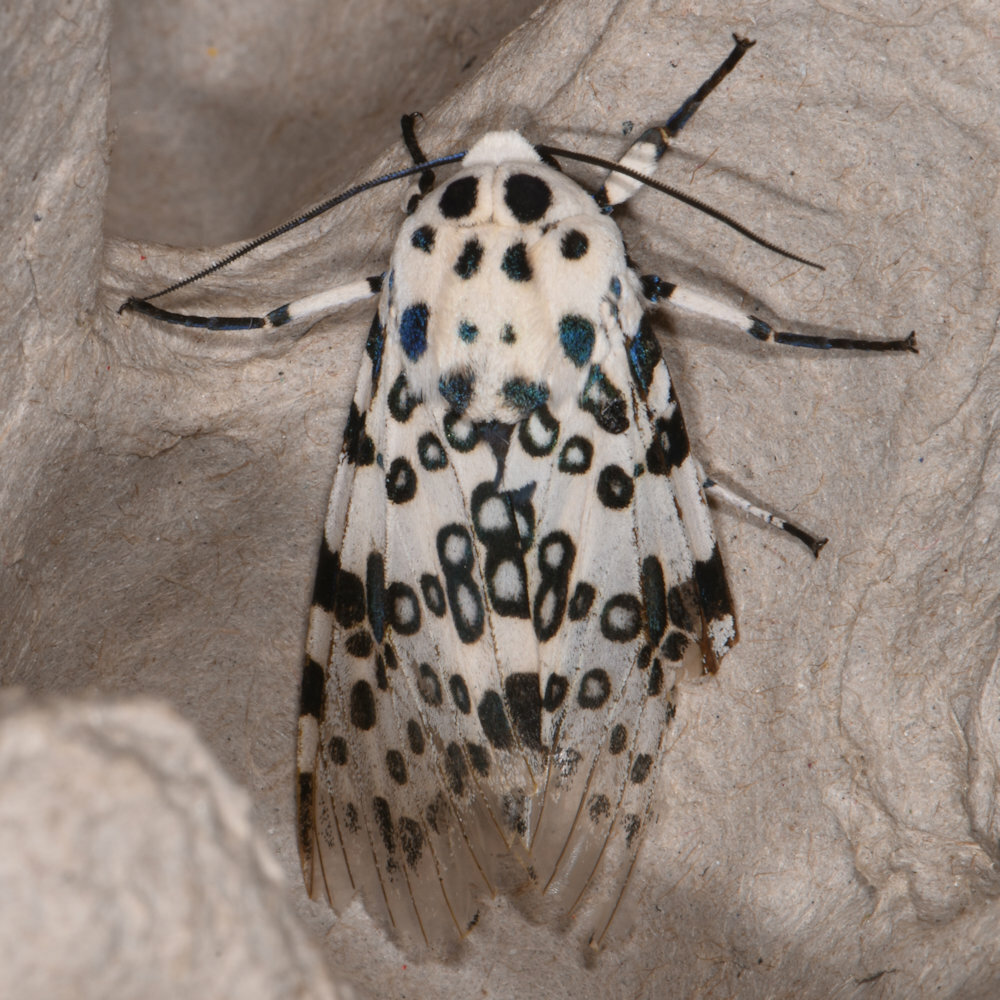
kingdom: Animalia
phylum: Arthropoda
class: Insecta
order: Lepidoptera
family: Erebidae
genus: Hypercompe
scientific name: Hypercompe scribonia
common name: Giant leopard moth
